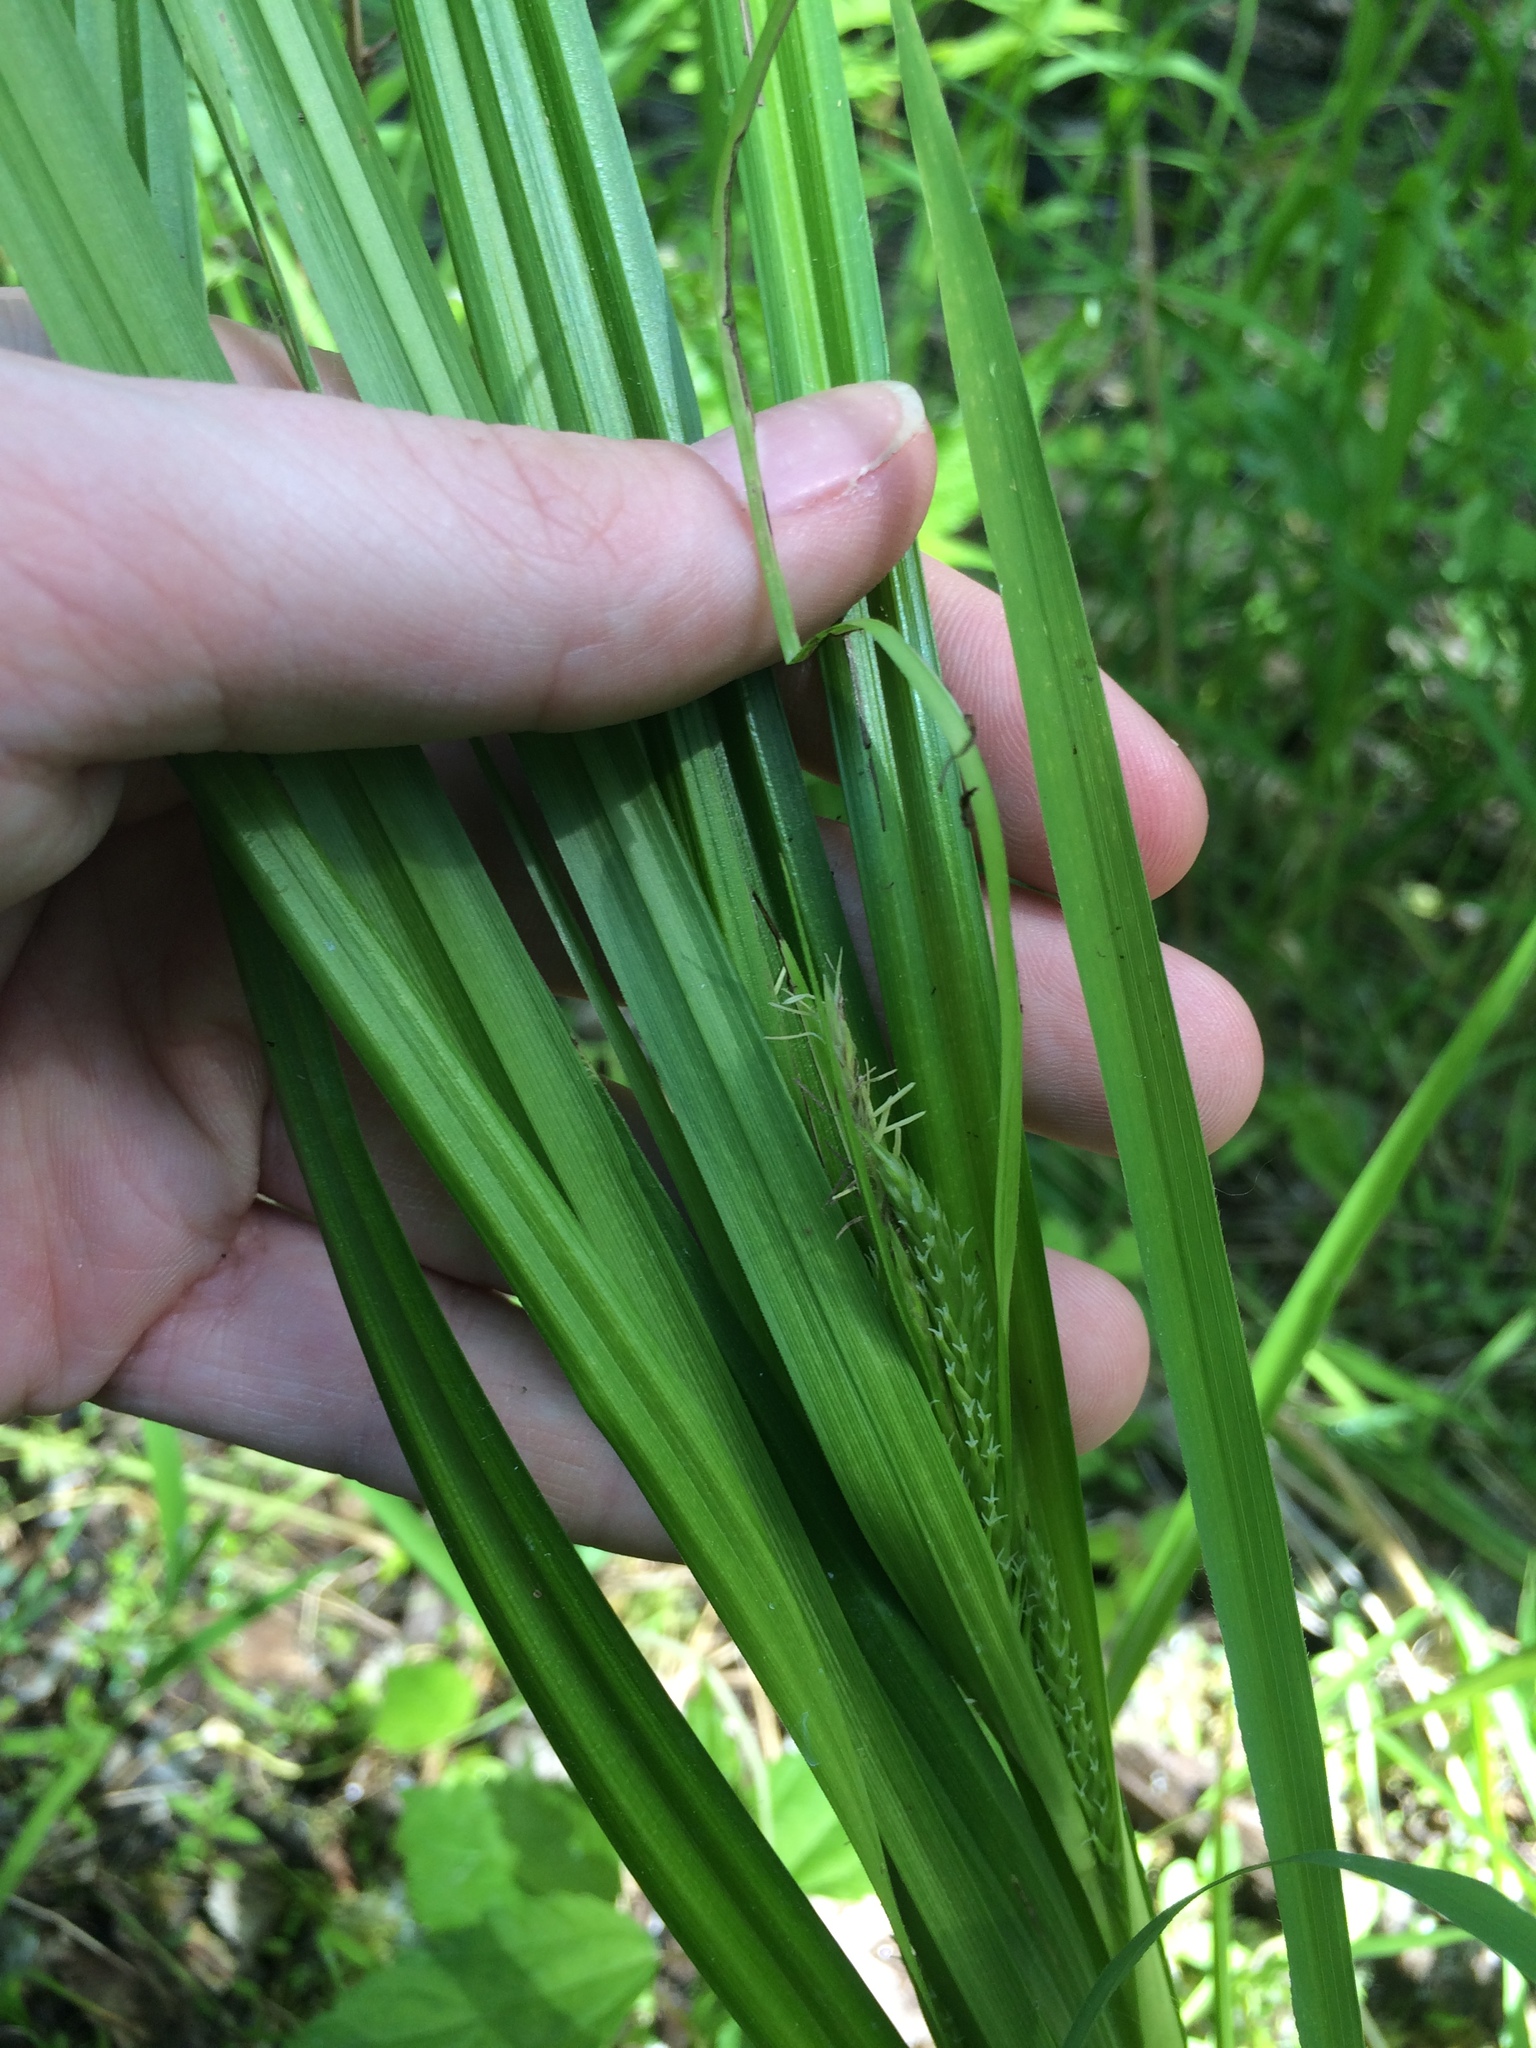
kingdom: Plantae
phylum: Tracheophyta
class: Liliopsida
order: Poales
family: Cyperaceae
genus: Carex
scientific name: Carex lacustris
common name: Common lake sedge
